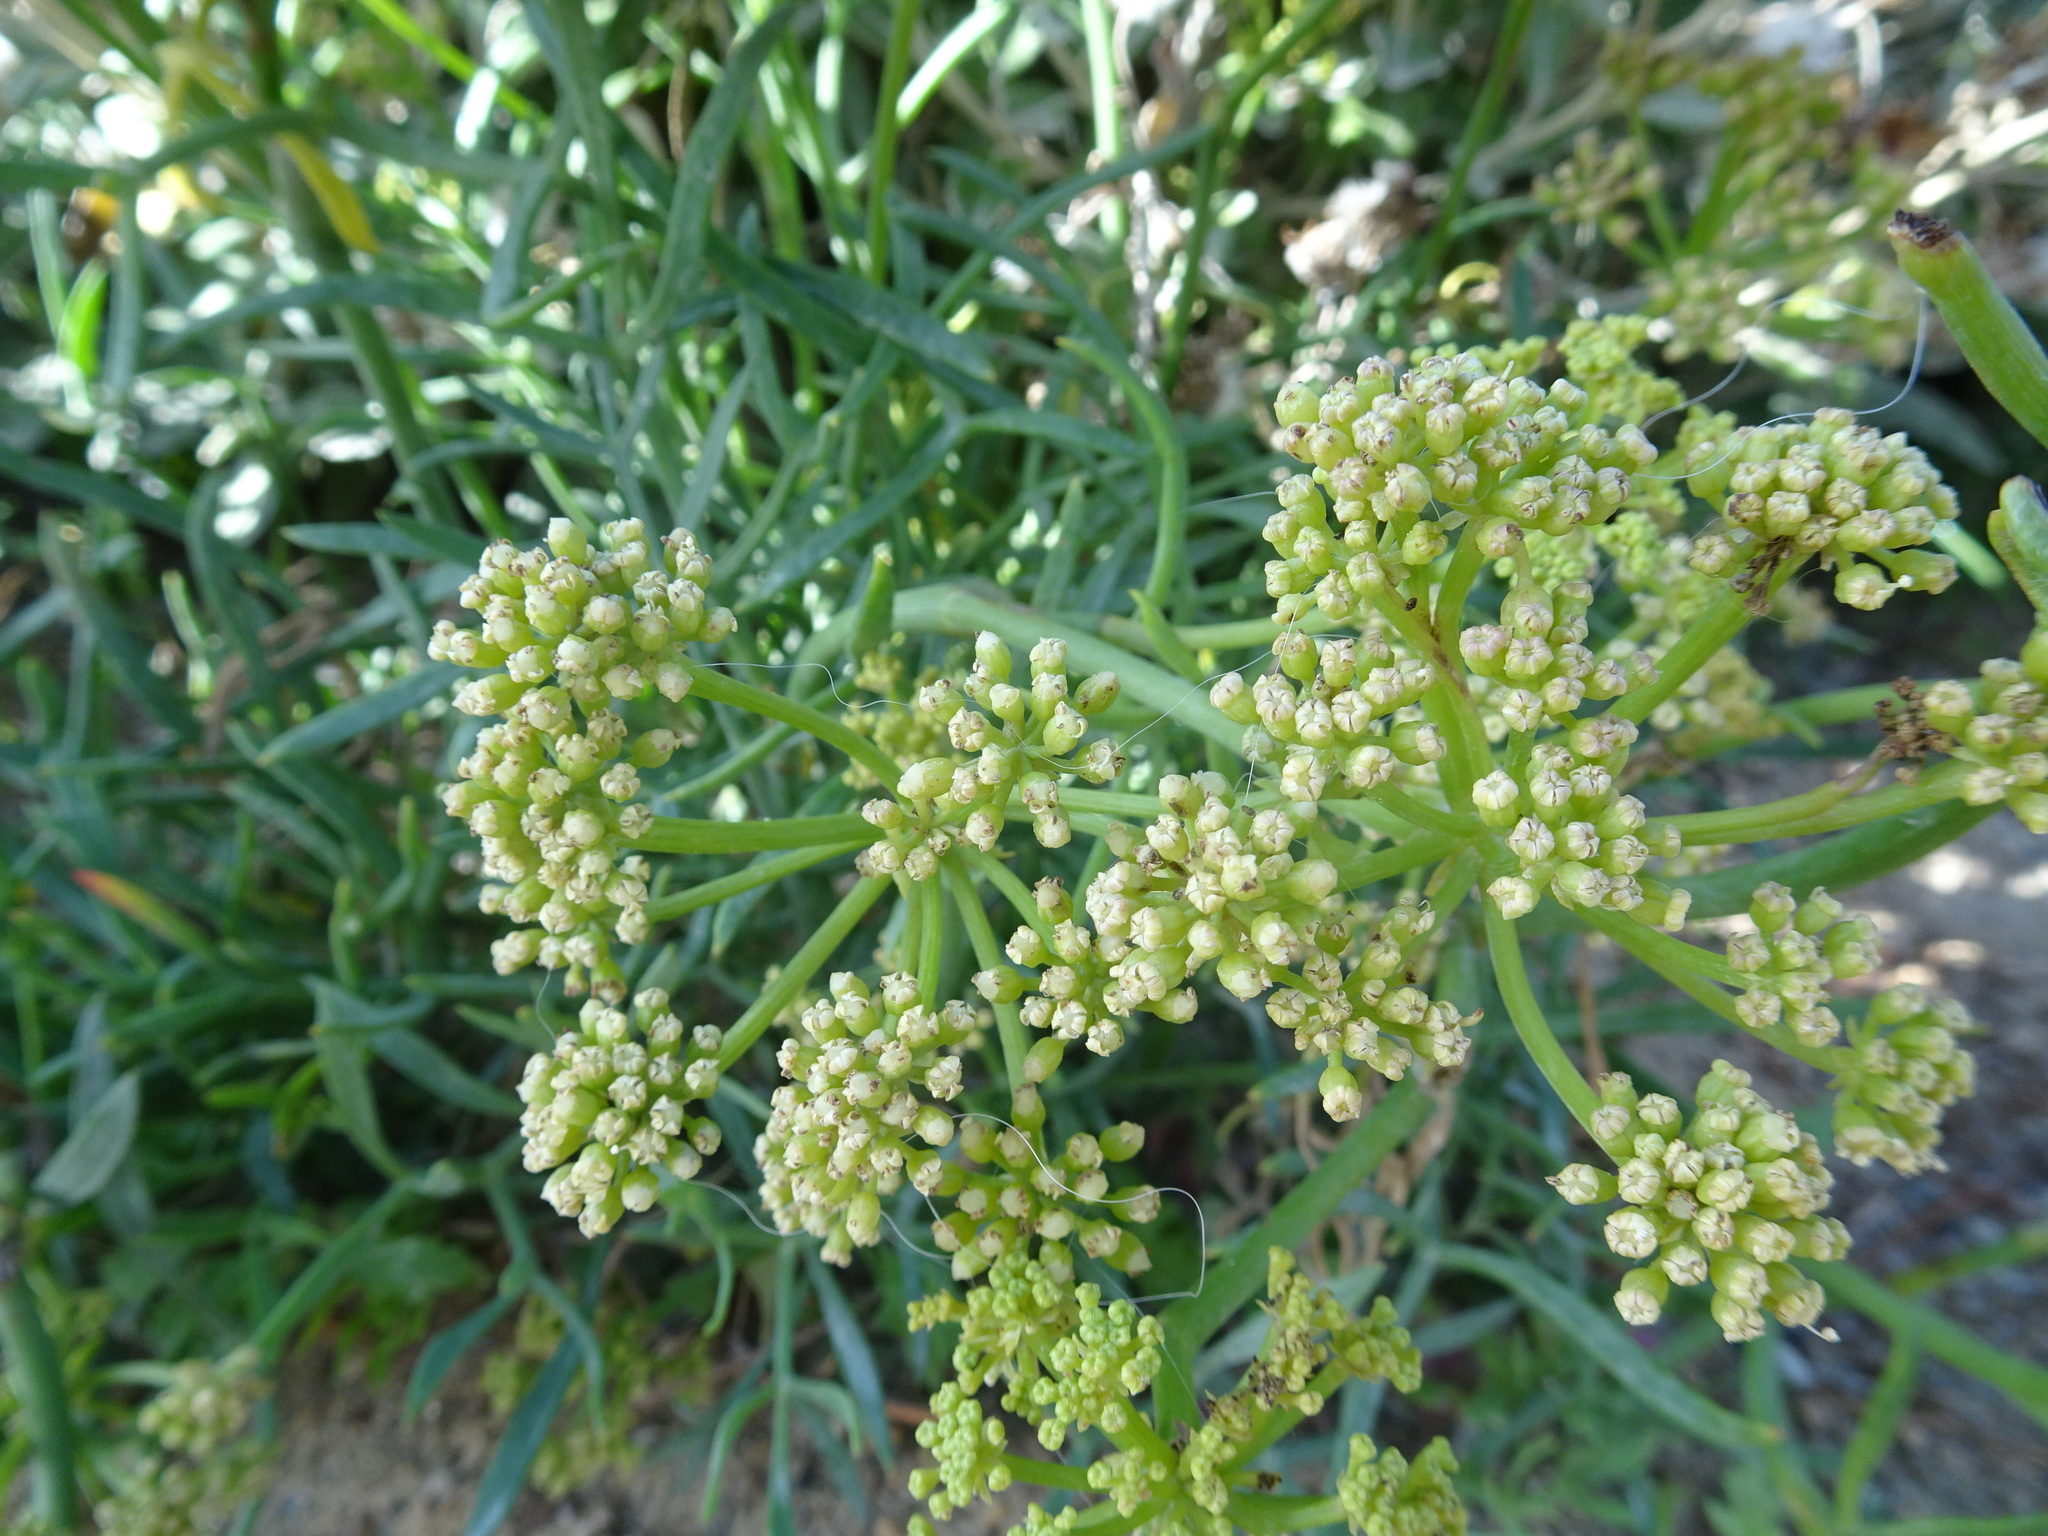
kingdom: Plantae
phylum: Tracheophyta
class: Magnoliopsida
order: Apiales
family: Apiaceae
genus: Crithmum
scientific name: Crithmum maritimum
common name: Rock samphire
